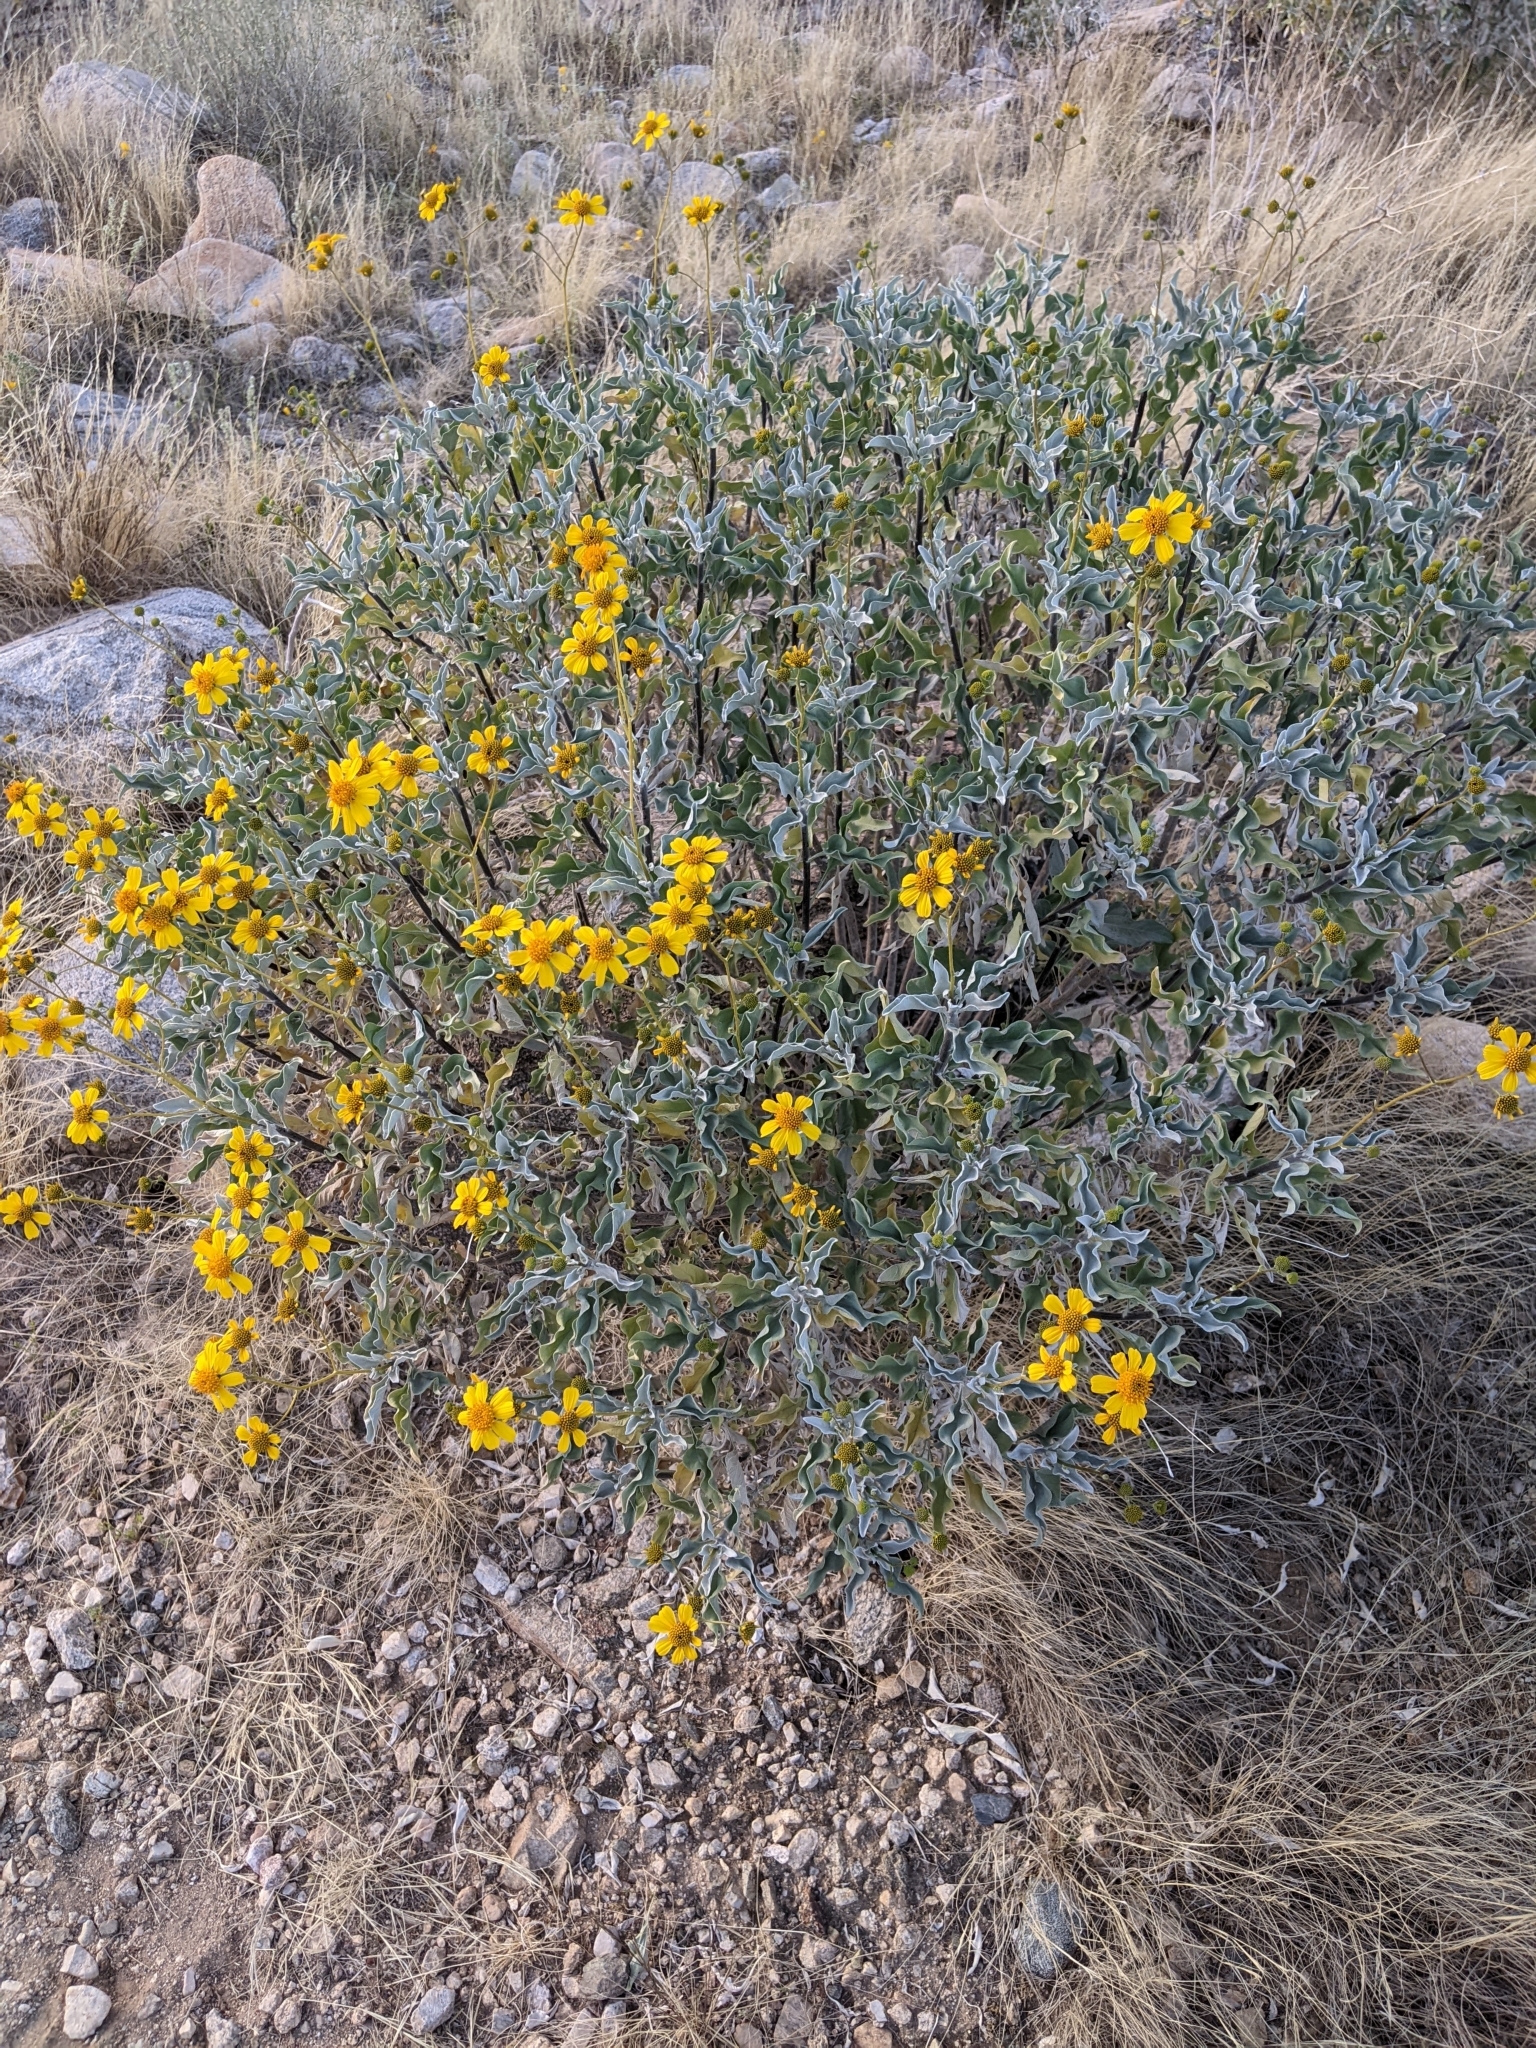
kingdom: Plantae
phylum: Tracheophyta
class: Magnoliopsida
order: Asterales
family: Asteraceae
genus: Encelia
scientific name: Encelia farinosa
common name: Brittlebush
